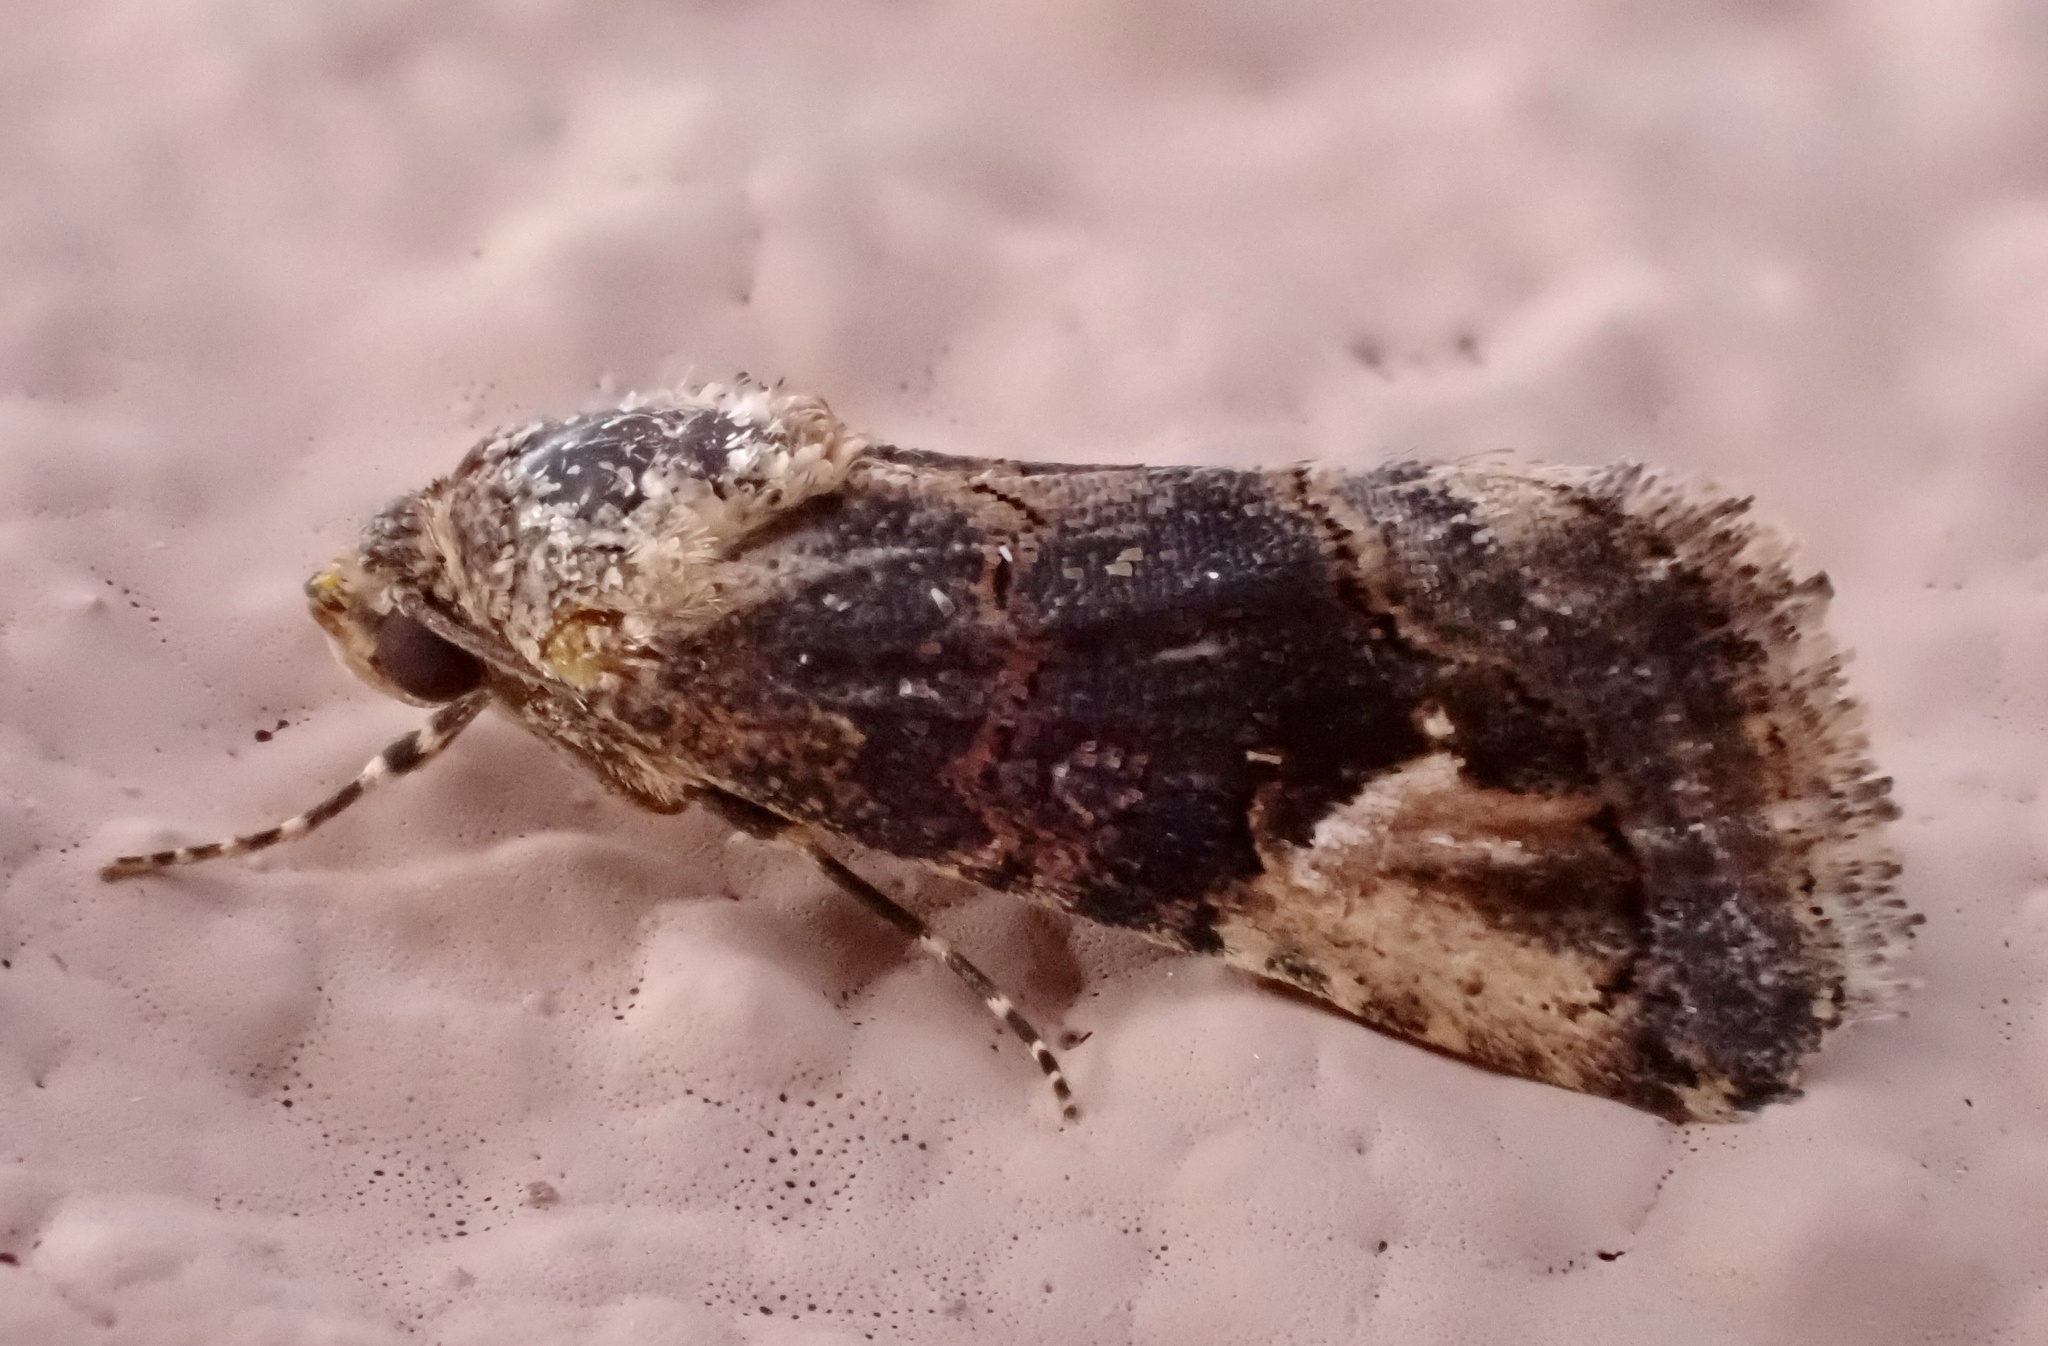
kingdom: Animalia
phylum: Arthropoda
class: Insecta
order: Lepidoptera
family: Erebidae
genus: Epharmottomena
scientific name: Epharmottomena eremophila
